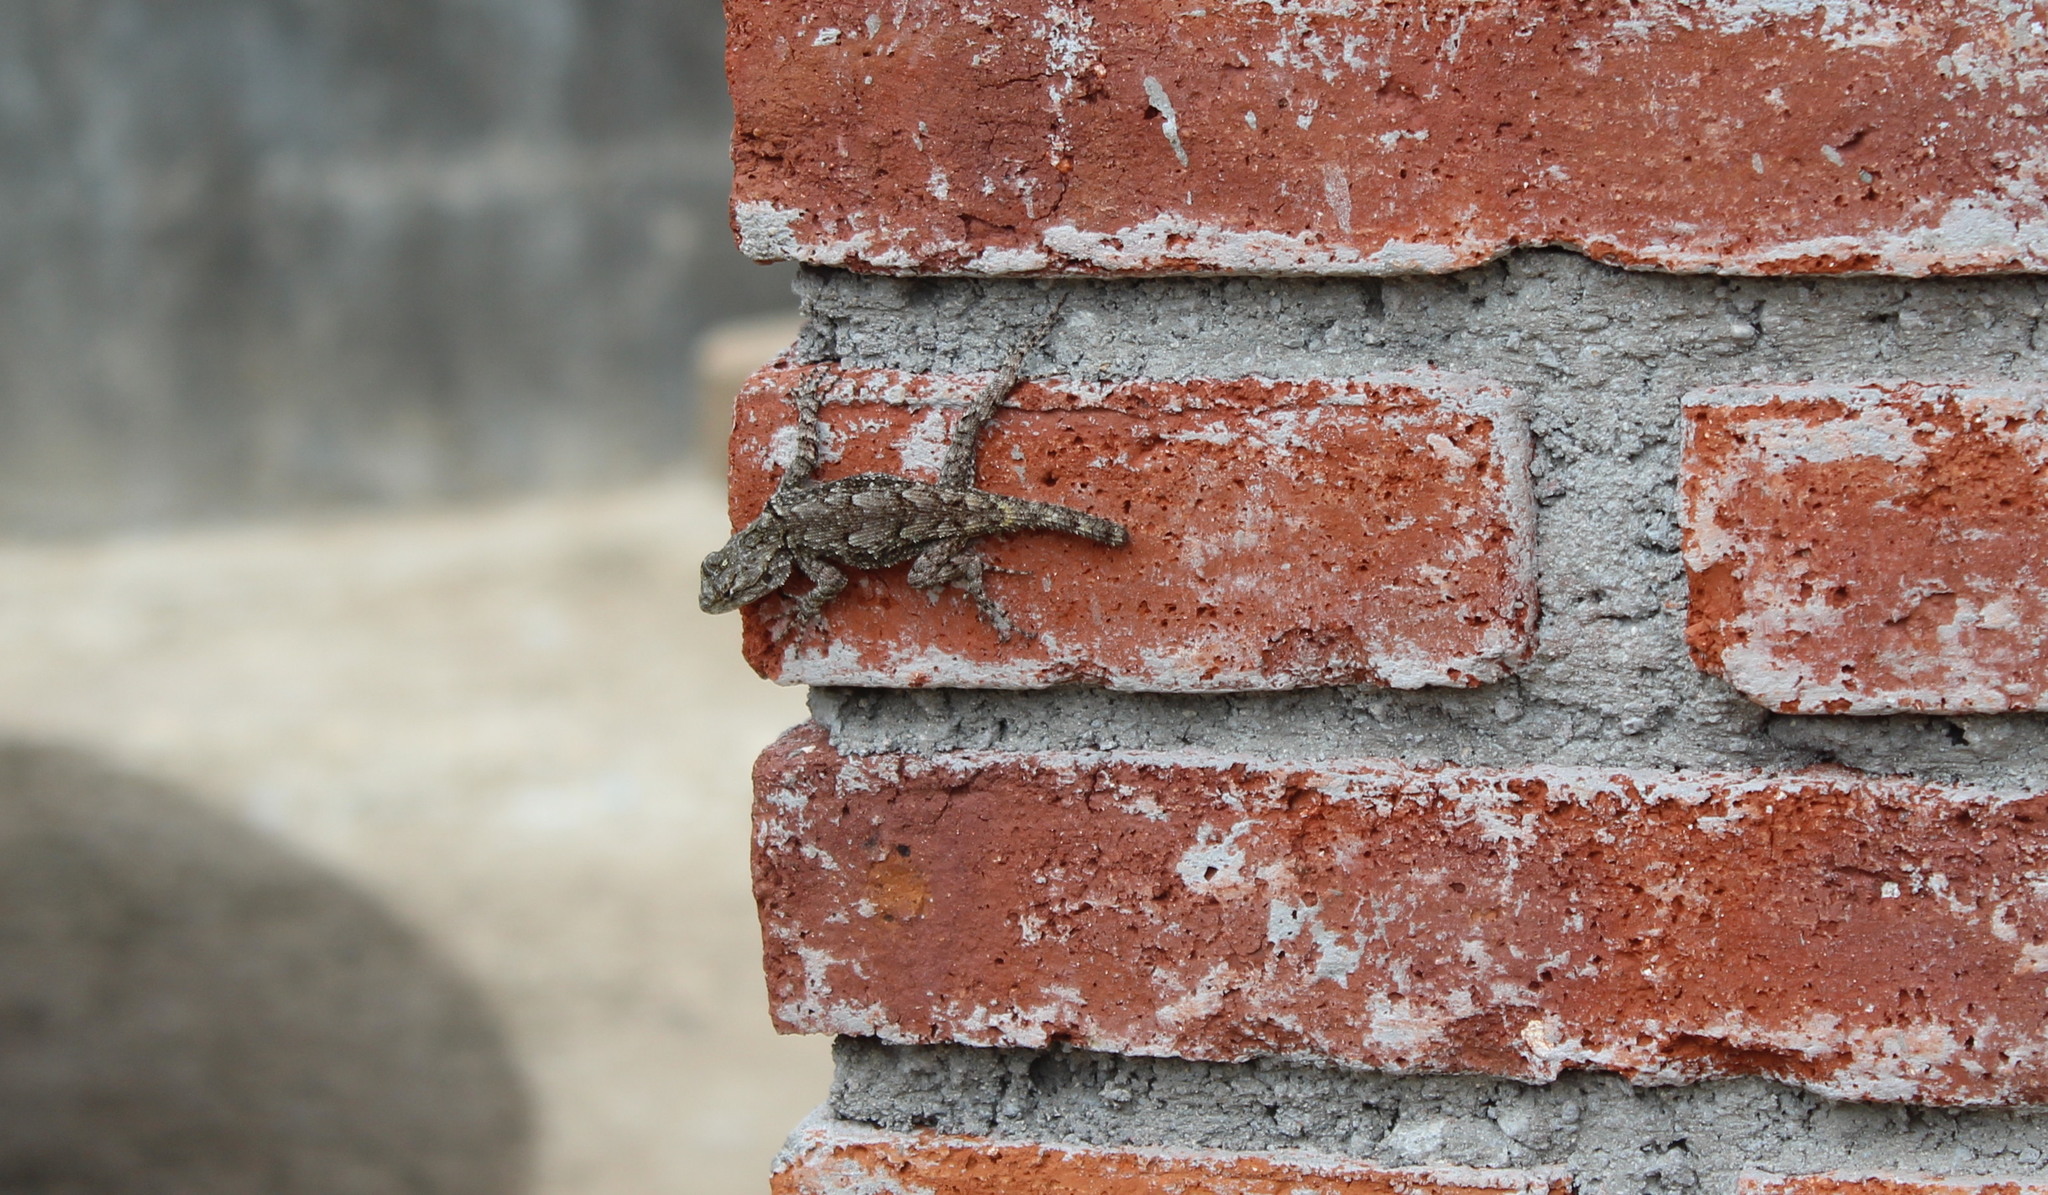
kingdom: Animalia
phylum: Chordata
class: Squamata
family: Phrynosomatidae
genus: Sceloporus
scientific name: Sceloporus grammicus
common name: Mesquite lizard
